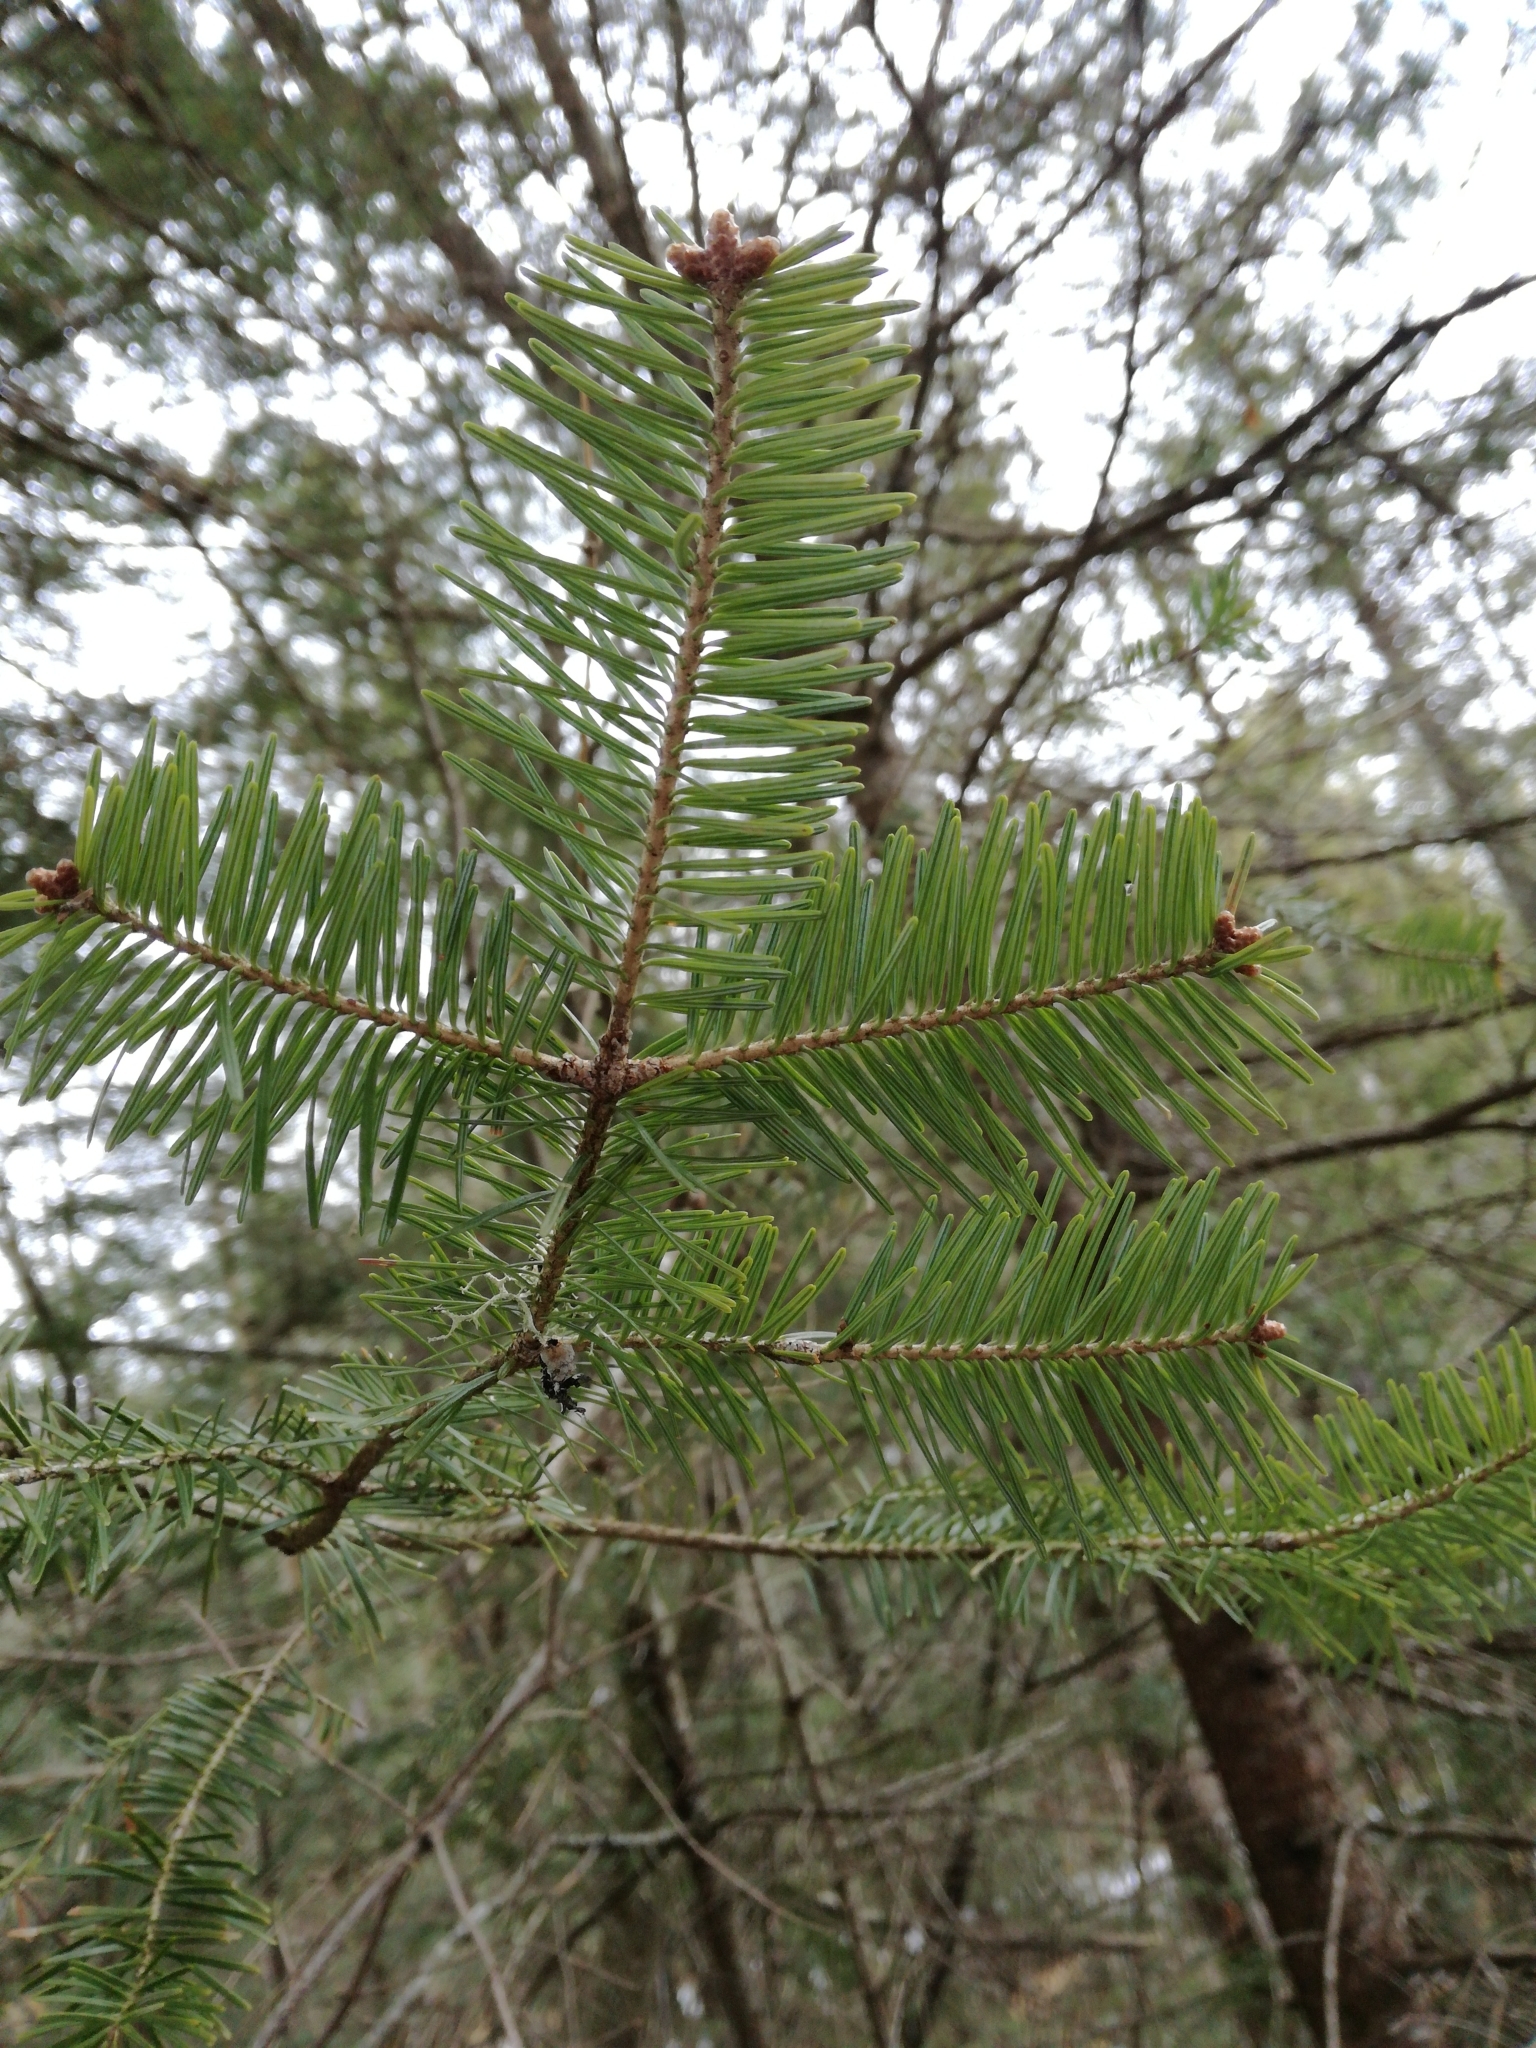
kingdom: Plantae
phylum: Tracheophyta
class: Pinopsida
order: Pinales
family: Pinaceae
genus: Abies
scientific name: Abies balsamea
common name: Balsam fir
